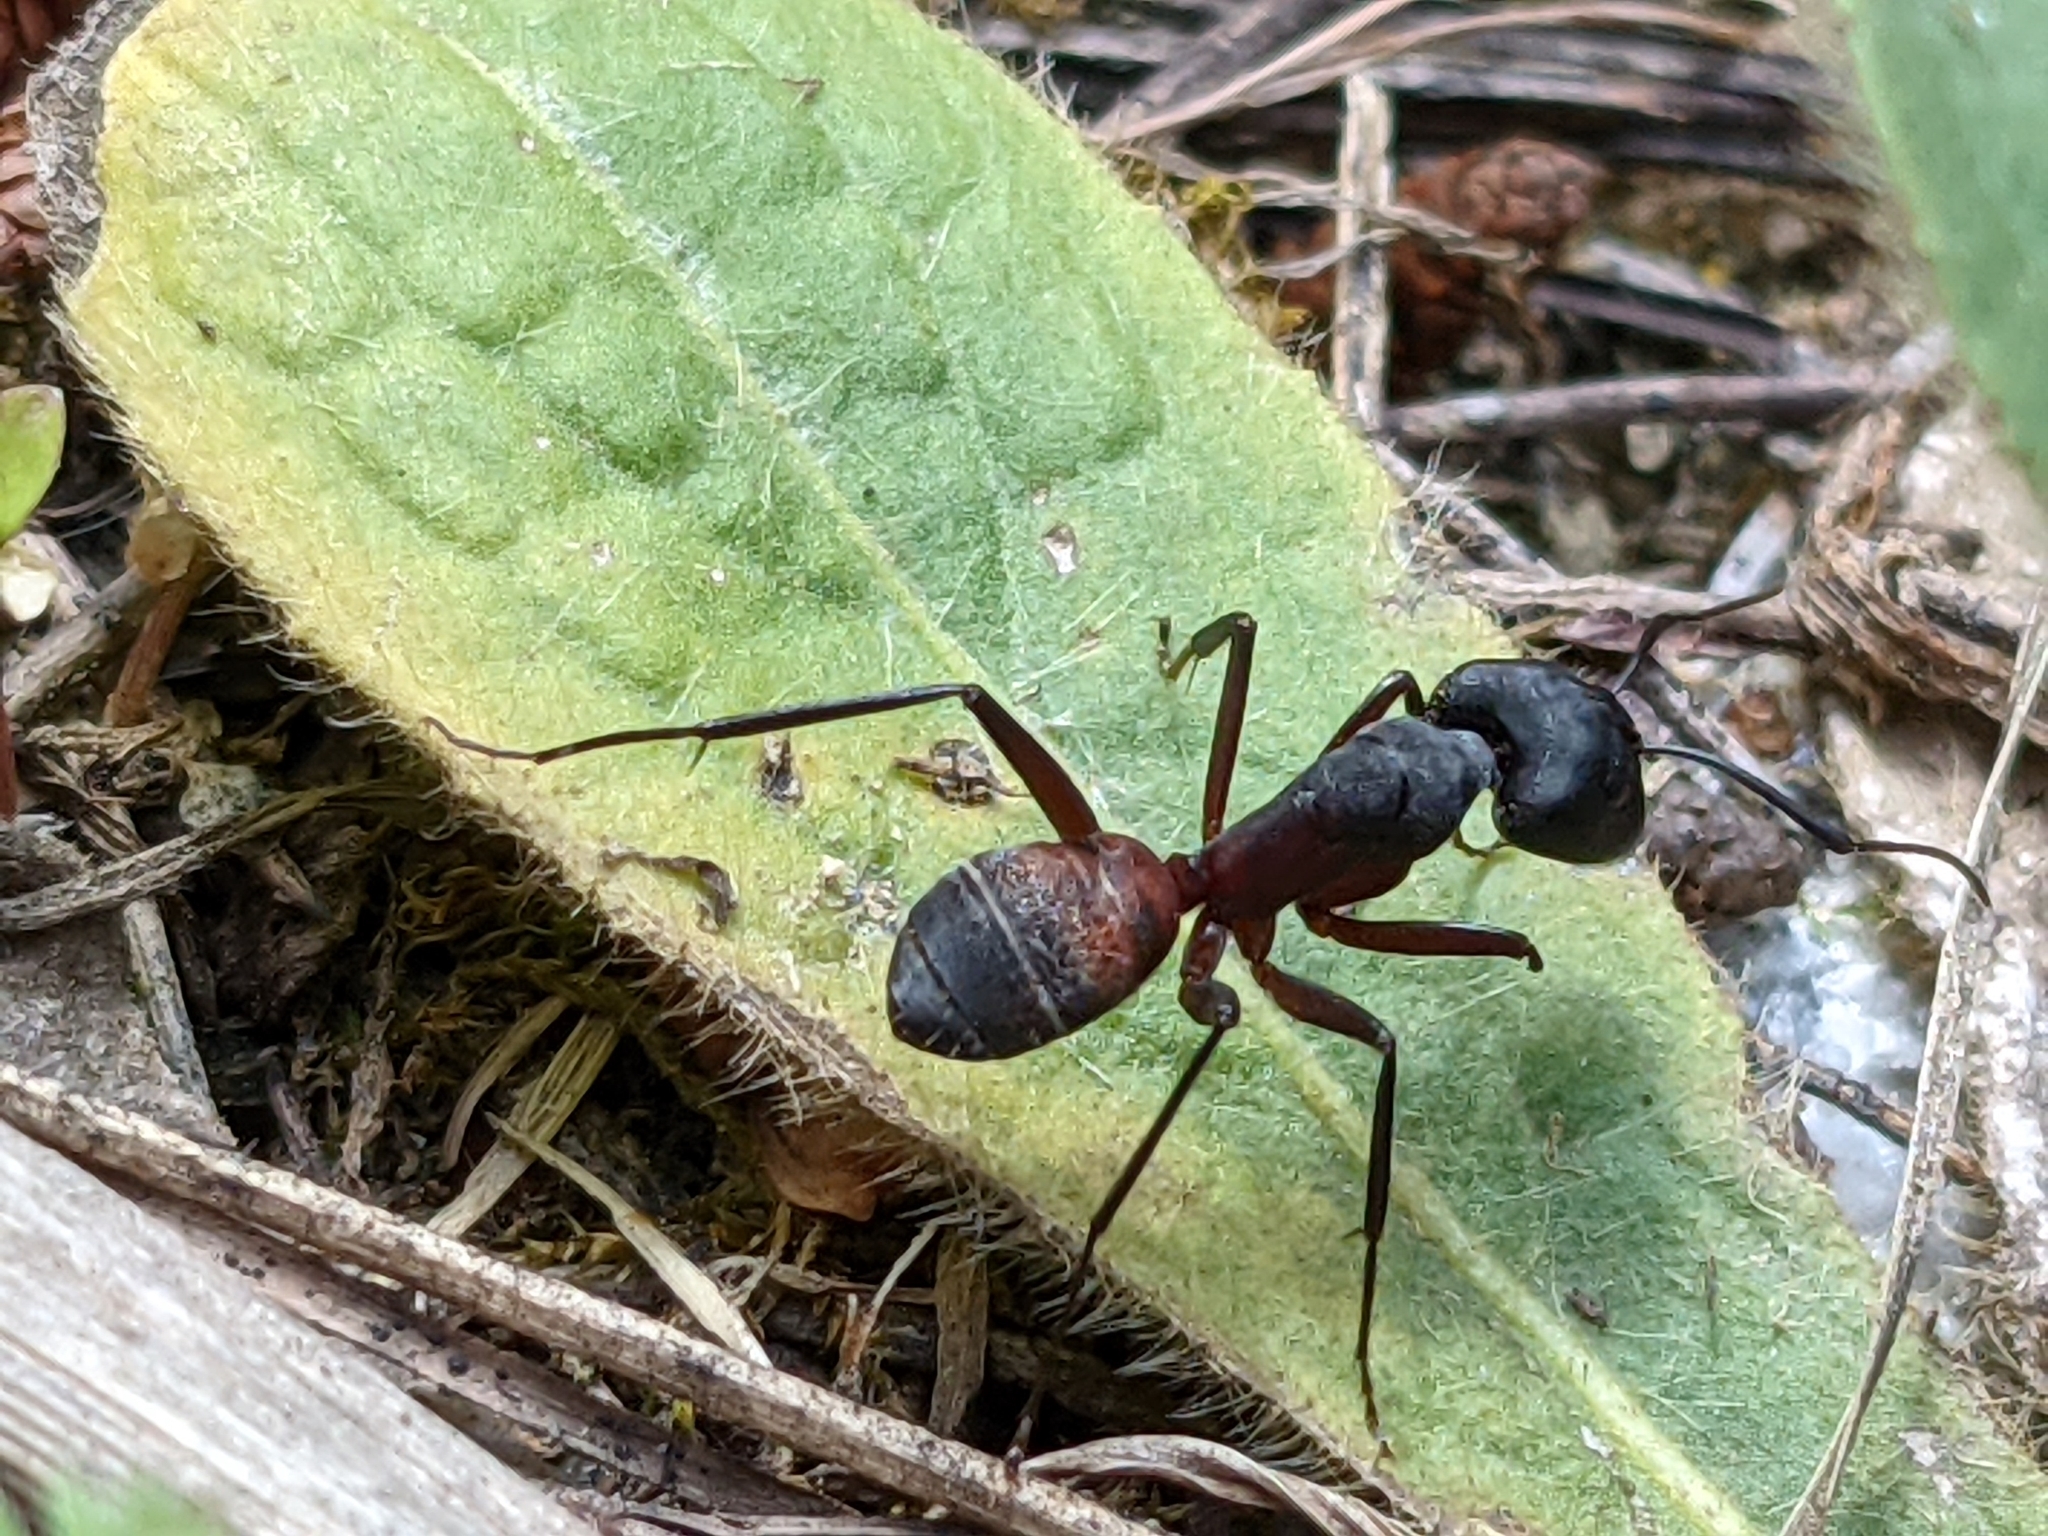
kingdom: Animalia
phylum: Arthropoda
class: Insecta
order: Hymenoptera
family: Formicidae
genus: Camponotus
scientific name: Camponotus cruentatus
